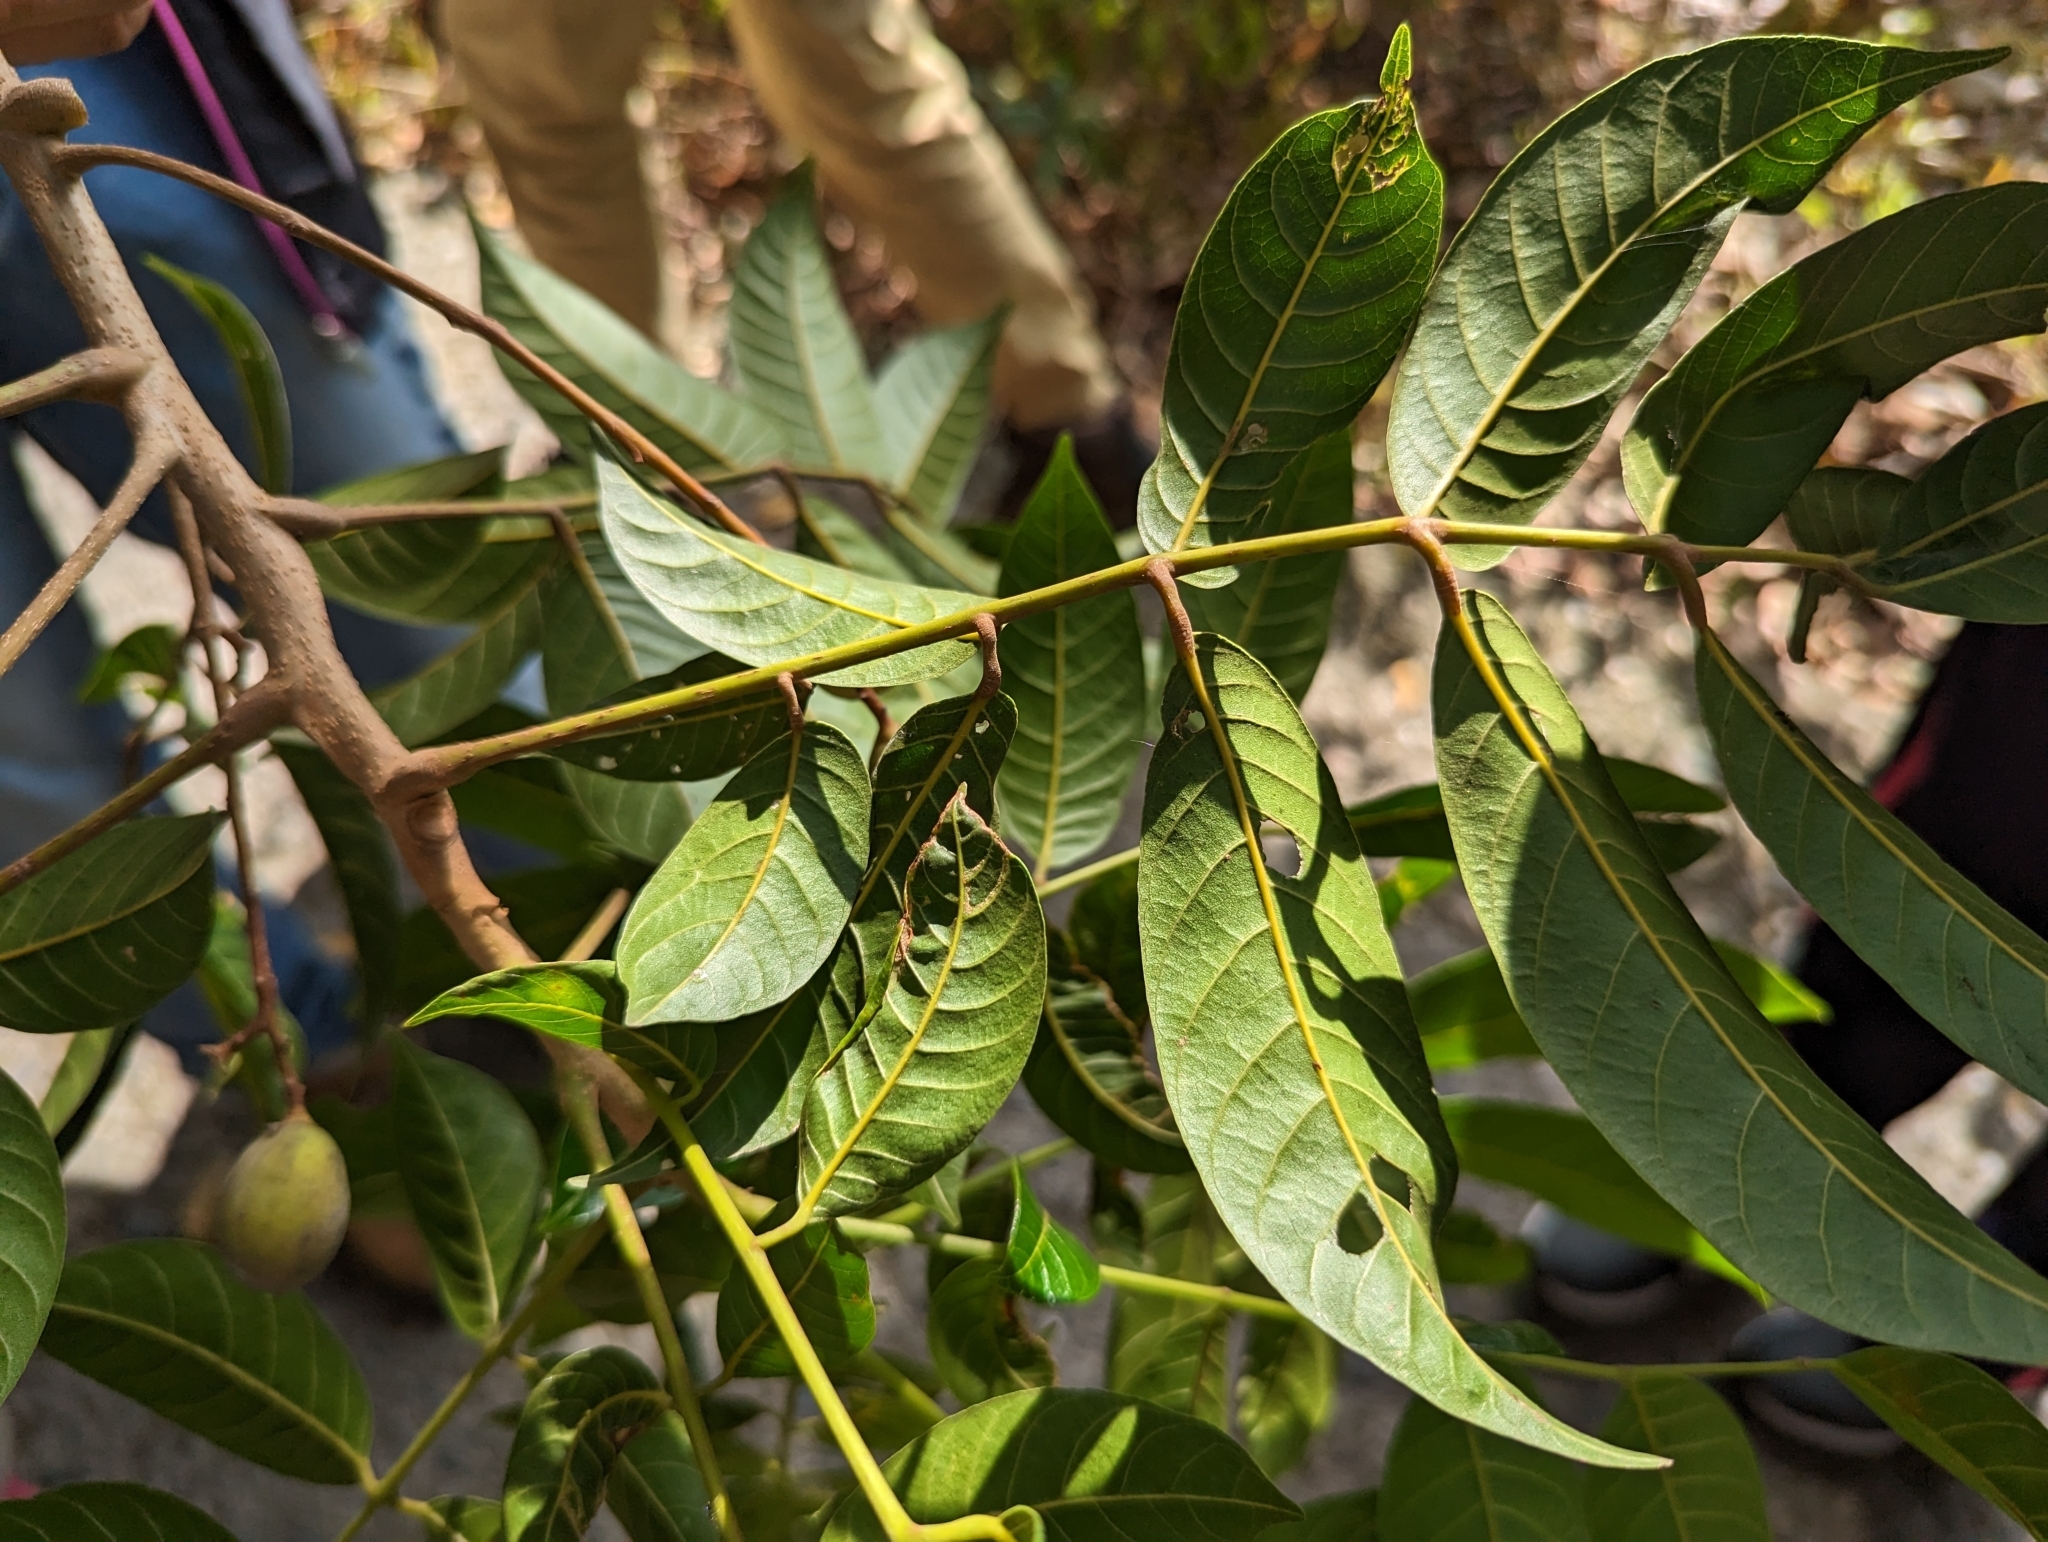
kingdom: Plantae
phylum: Tracheophyta
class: Magnoliopsida
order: Sapindales
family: Burseraceae
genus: Canarium
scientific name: Canarium subulatum
